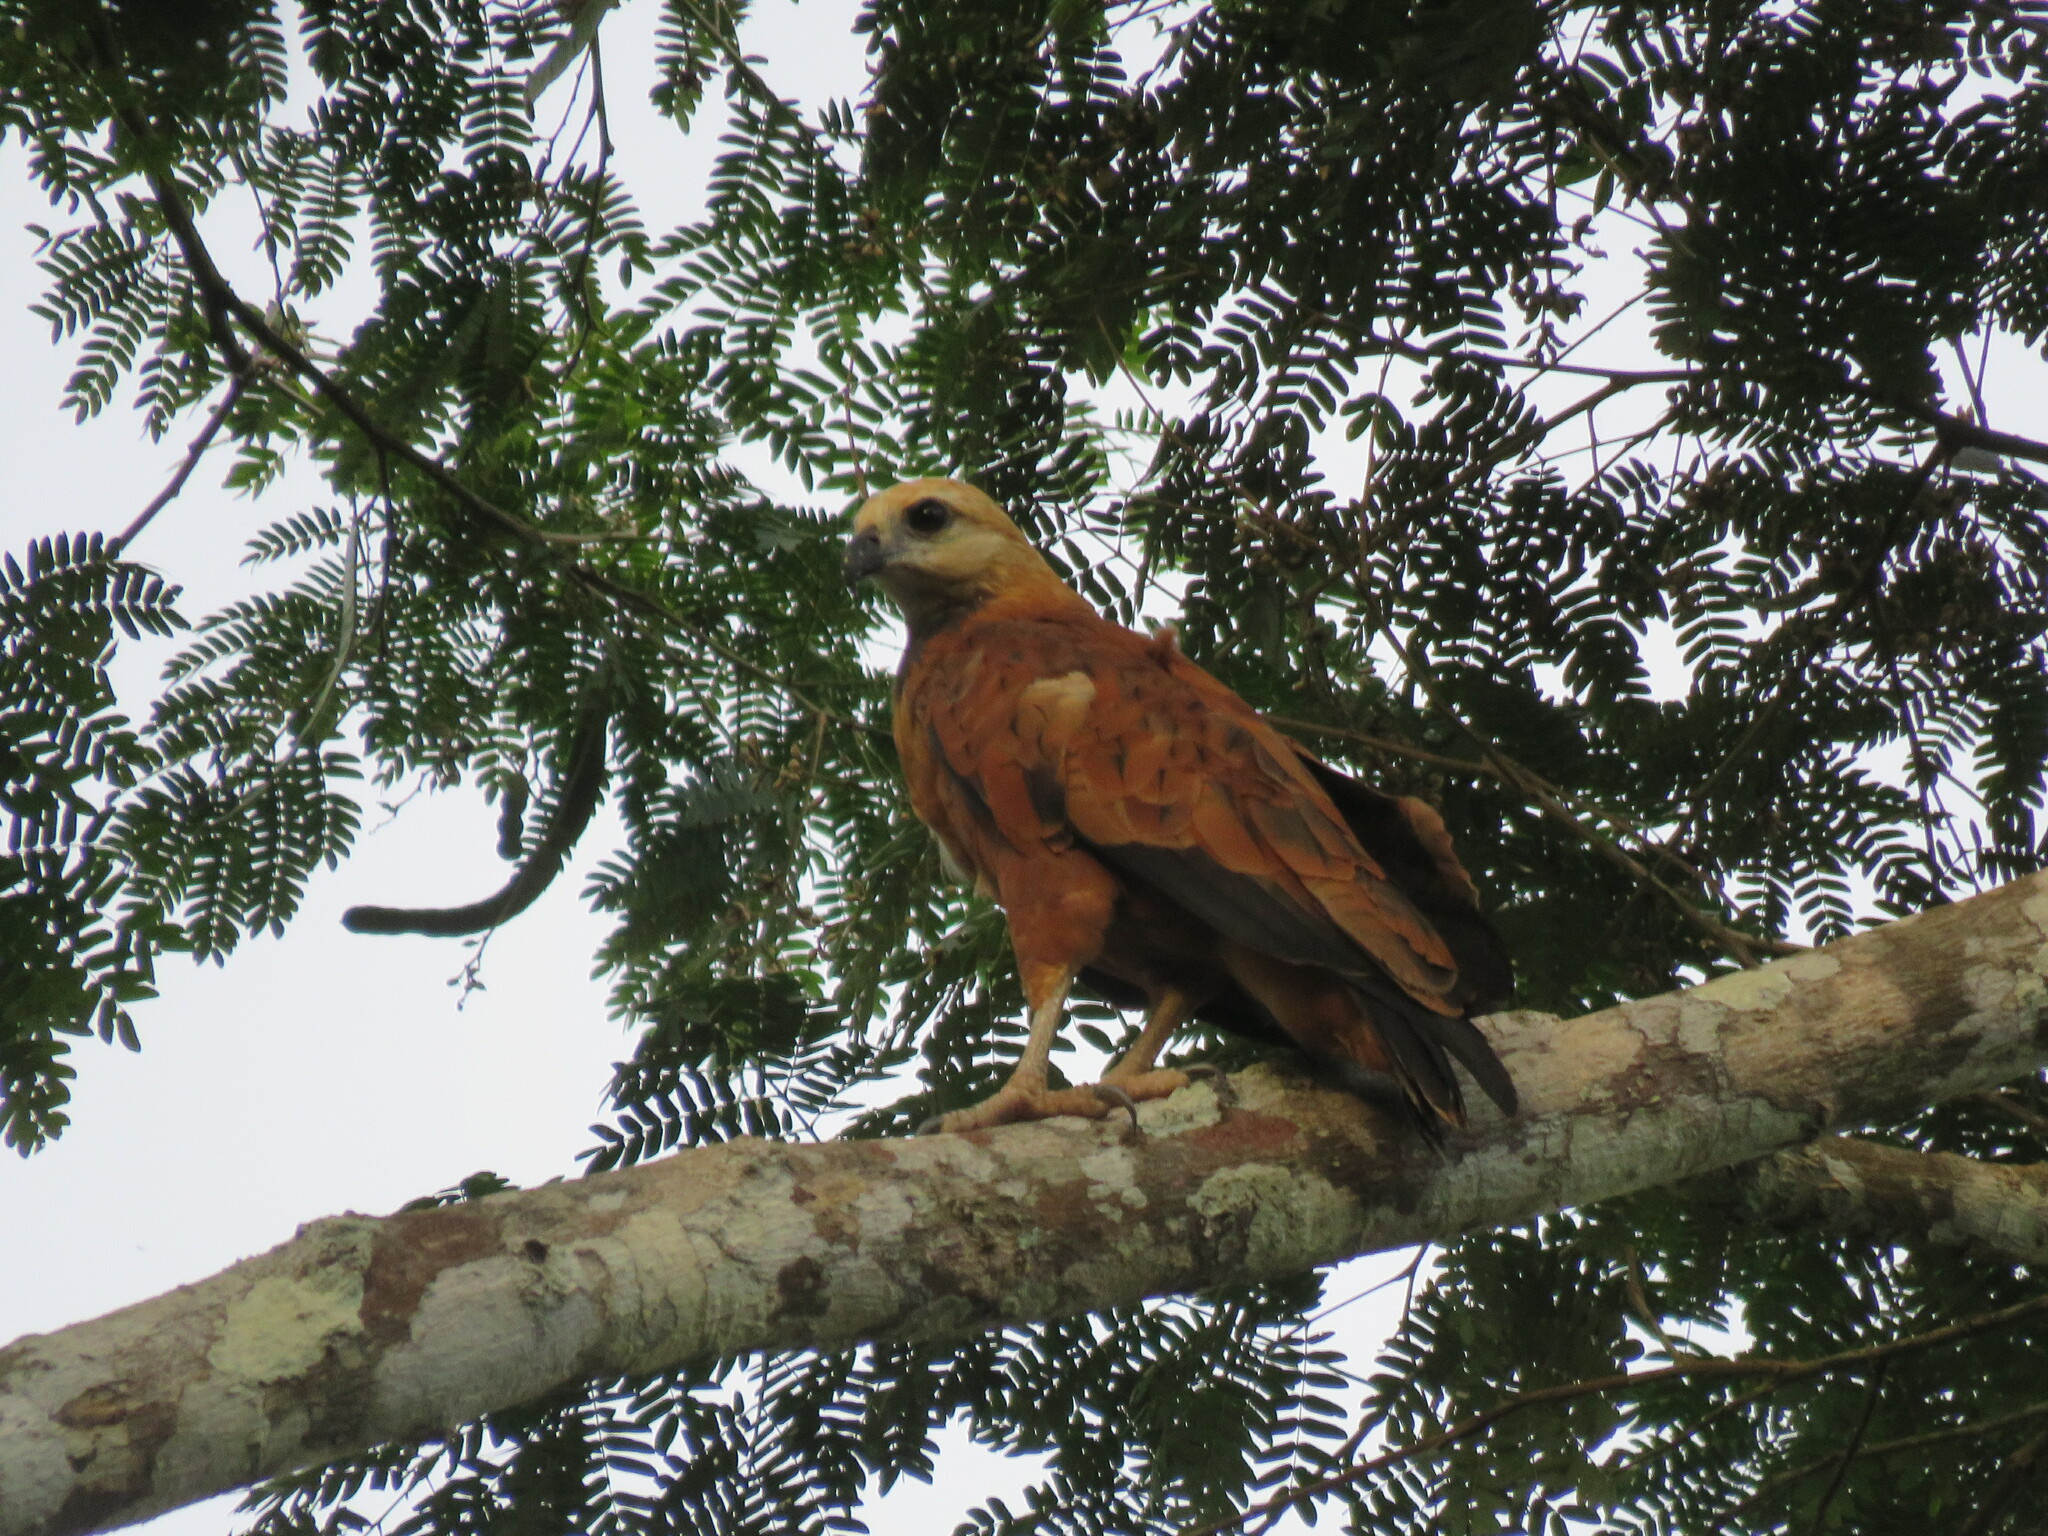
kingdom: Animalia
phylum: Chordata
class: Aves
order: Accipitriformes
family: Accipitridae
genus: Busarellus
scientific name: Busarellus nigricollis
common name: Black-collared hawk
